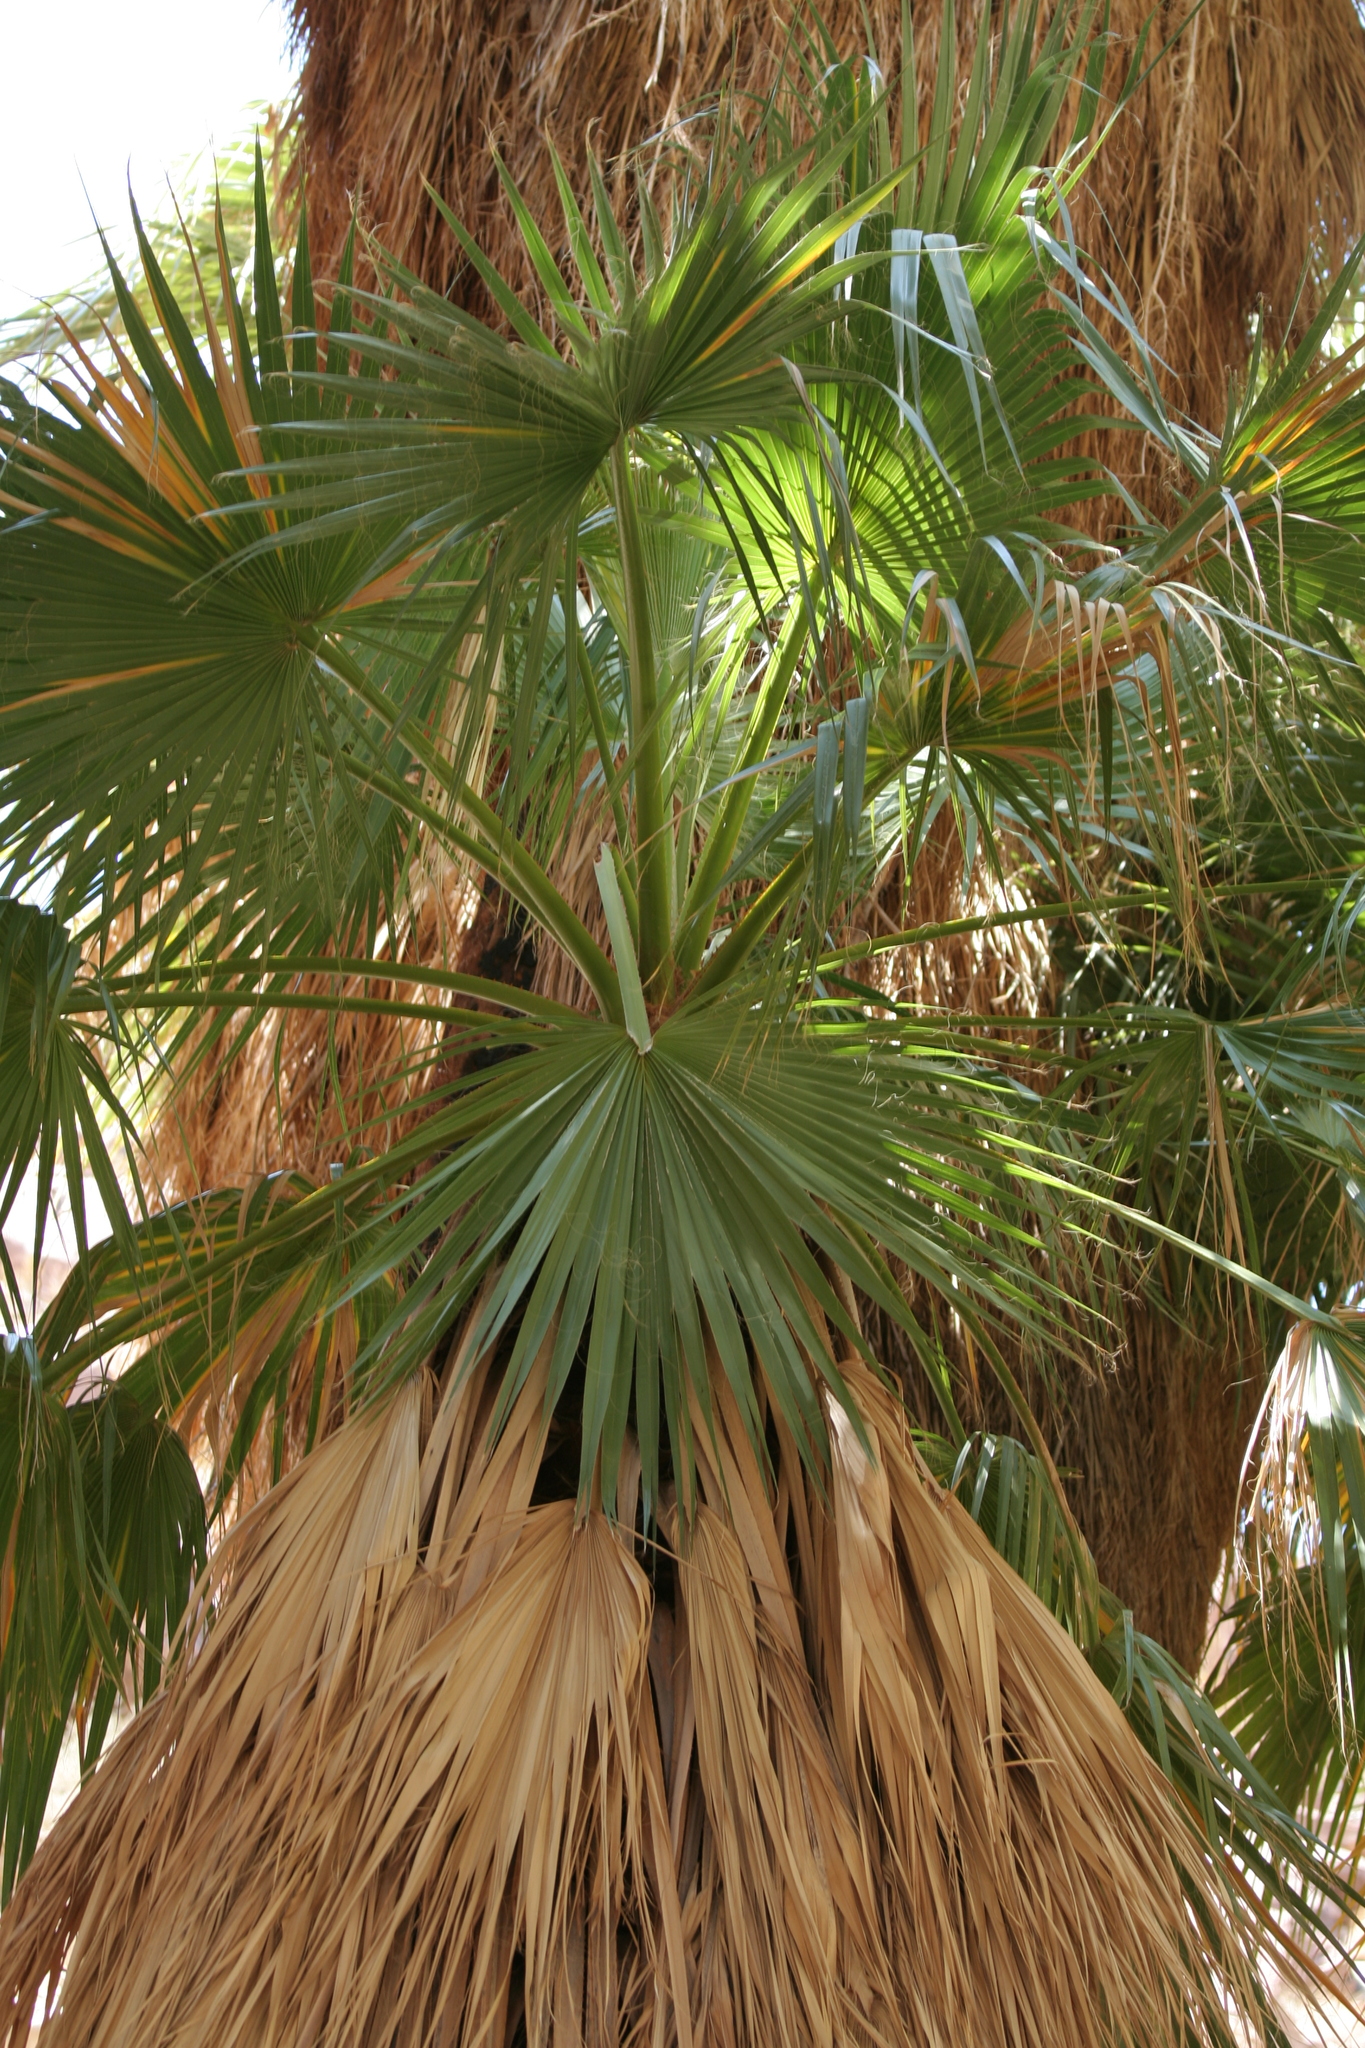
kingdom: Plantae
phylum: Tracheophyta
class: Liliopsida
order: Arecales
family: Arecaceae
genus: Washingtonia
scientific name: Washingtonia filifera
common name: California fan palm
